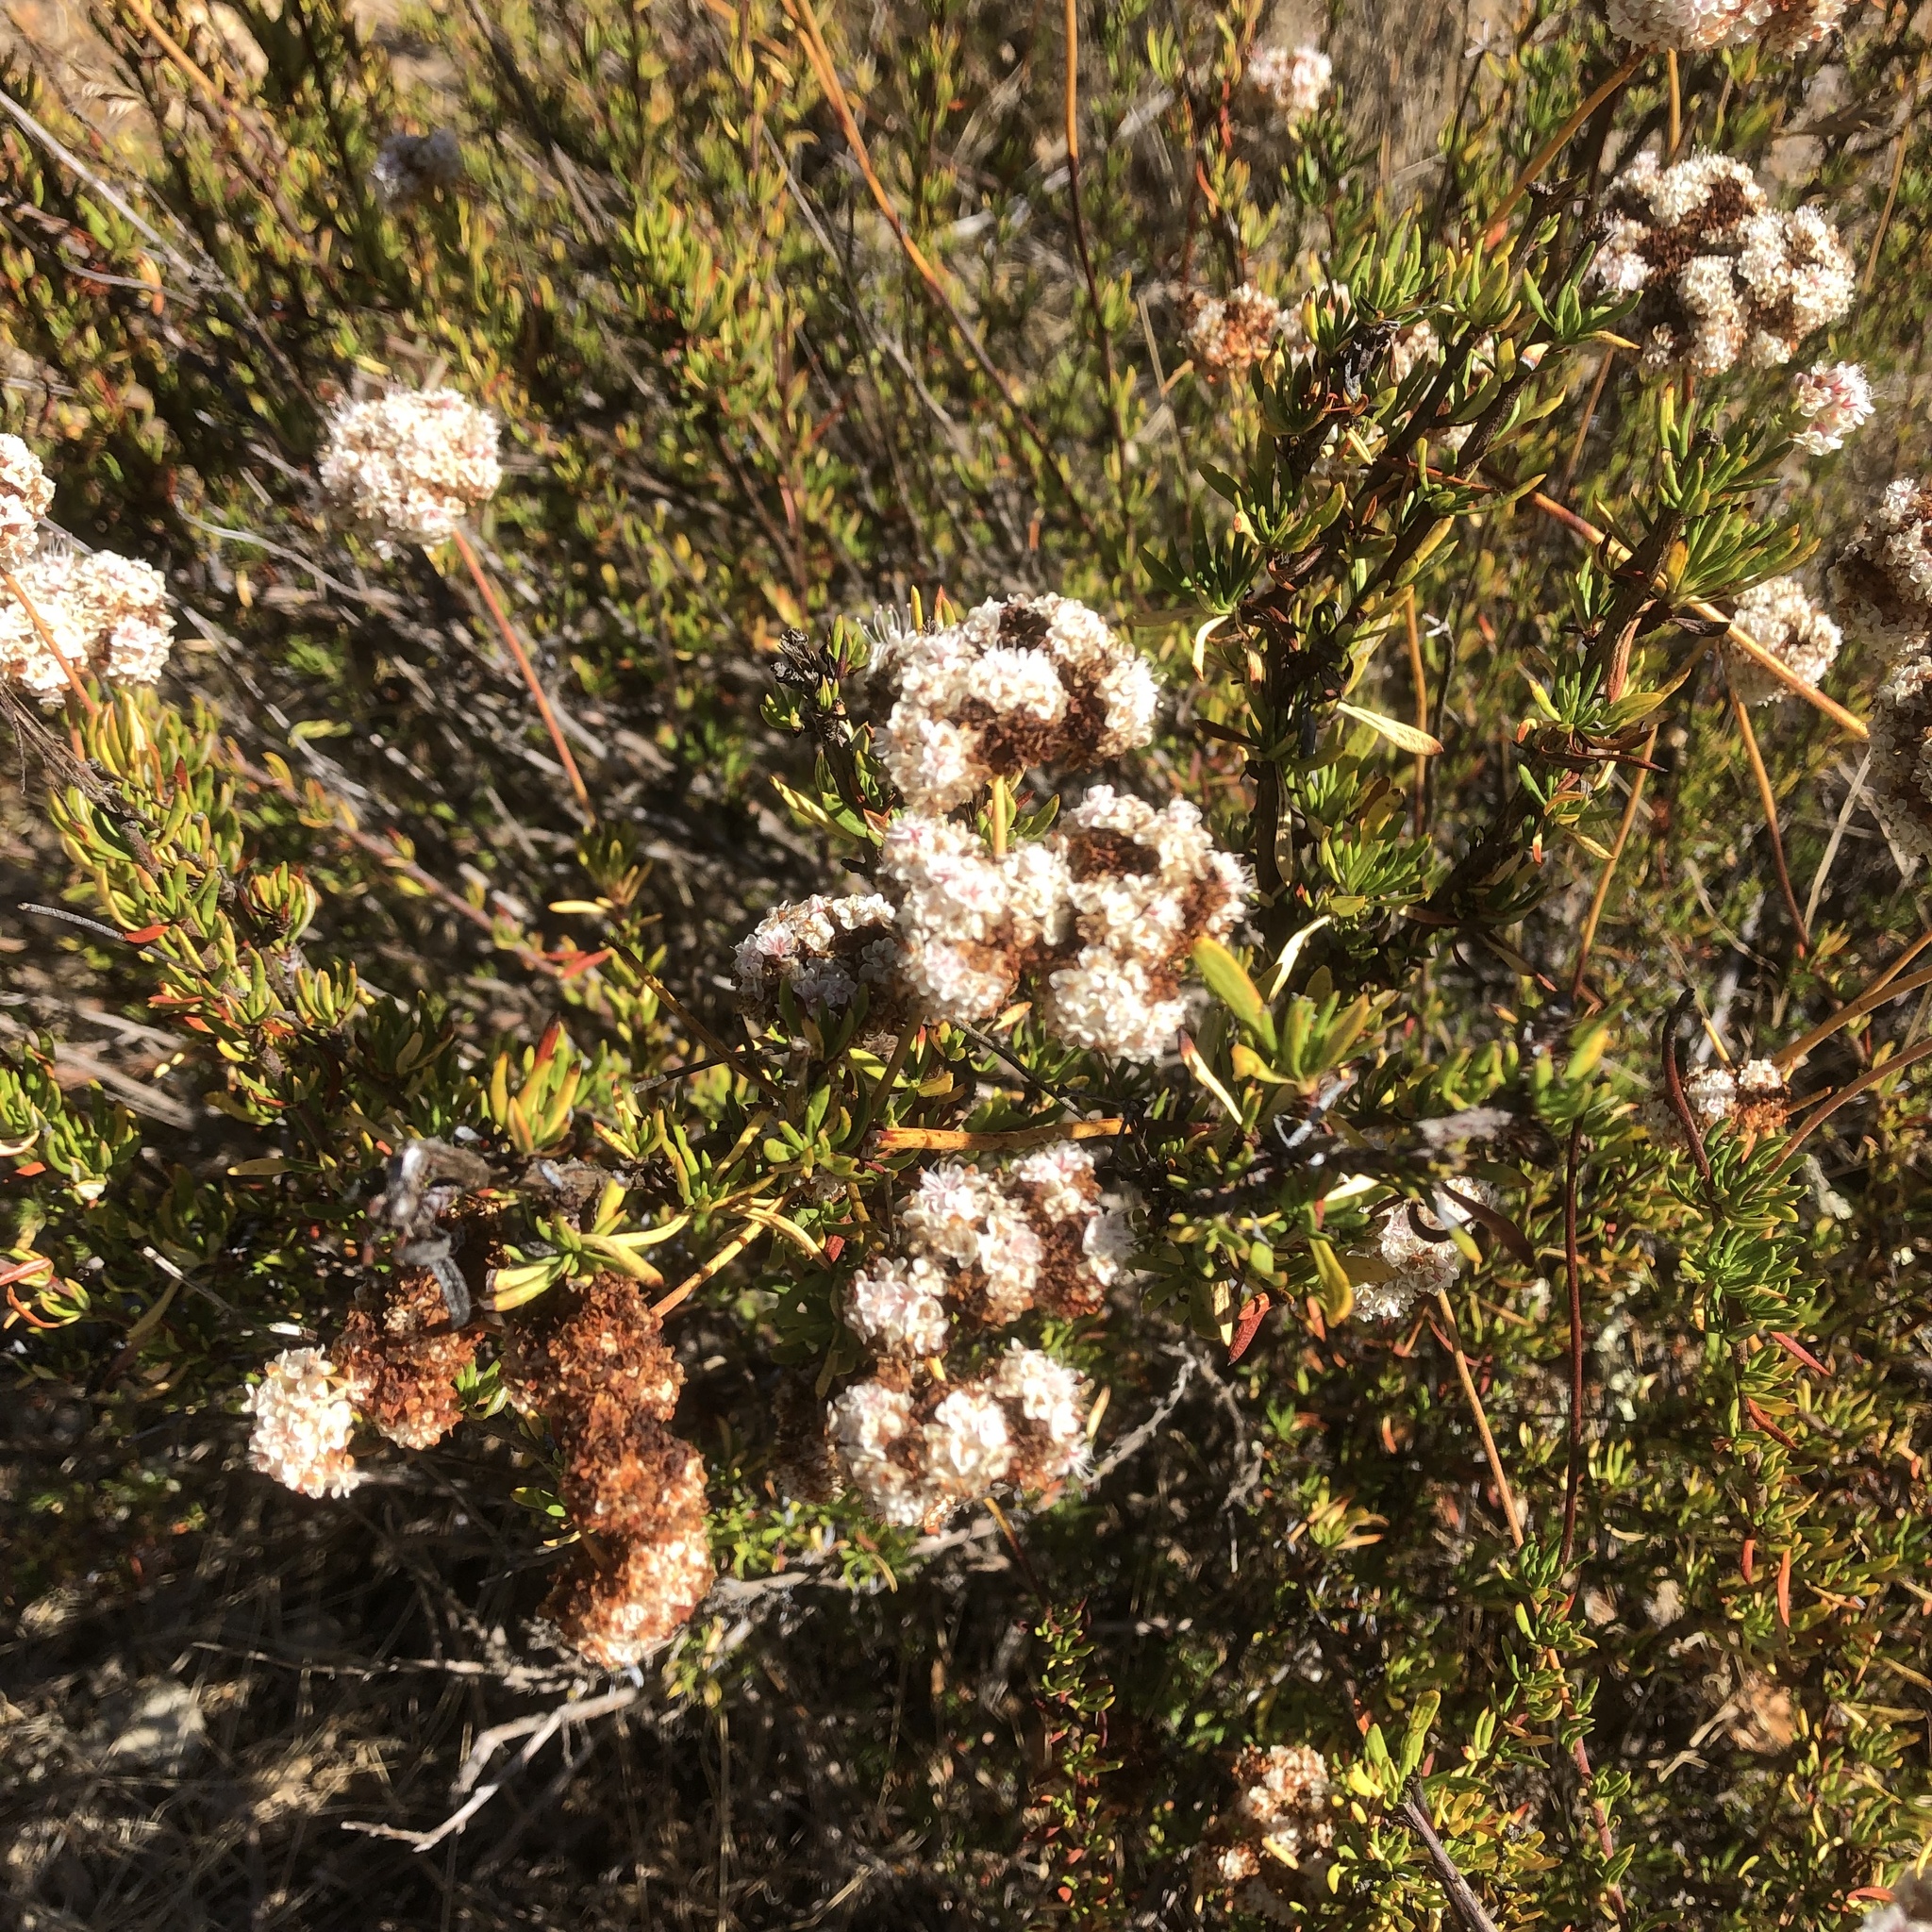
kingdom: Plantae
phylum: Tracheophyta
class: Magnoliopsida
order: Caryophyllales
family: Polygonaceae
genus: Eriogonum
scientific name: Eriogonum fasciculatum
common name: California wild buckwheat
